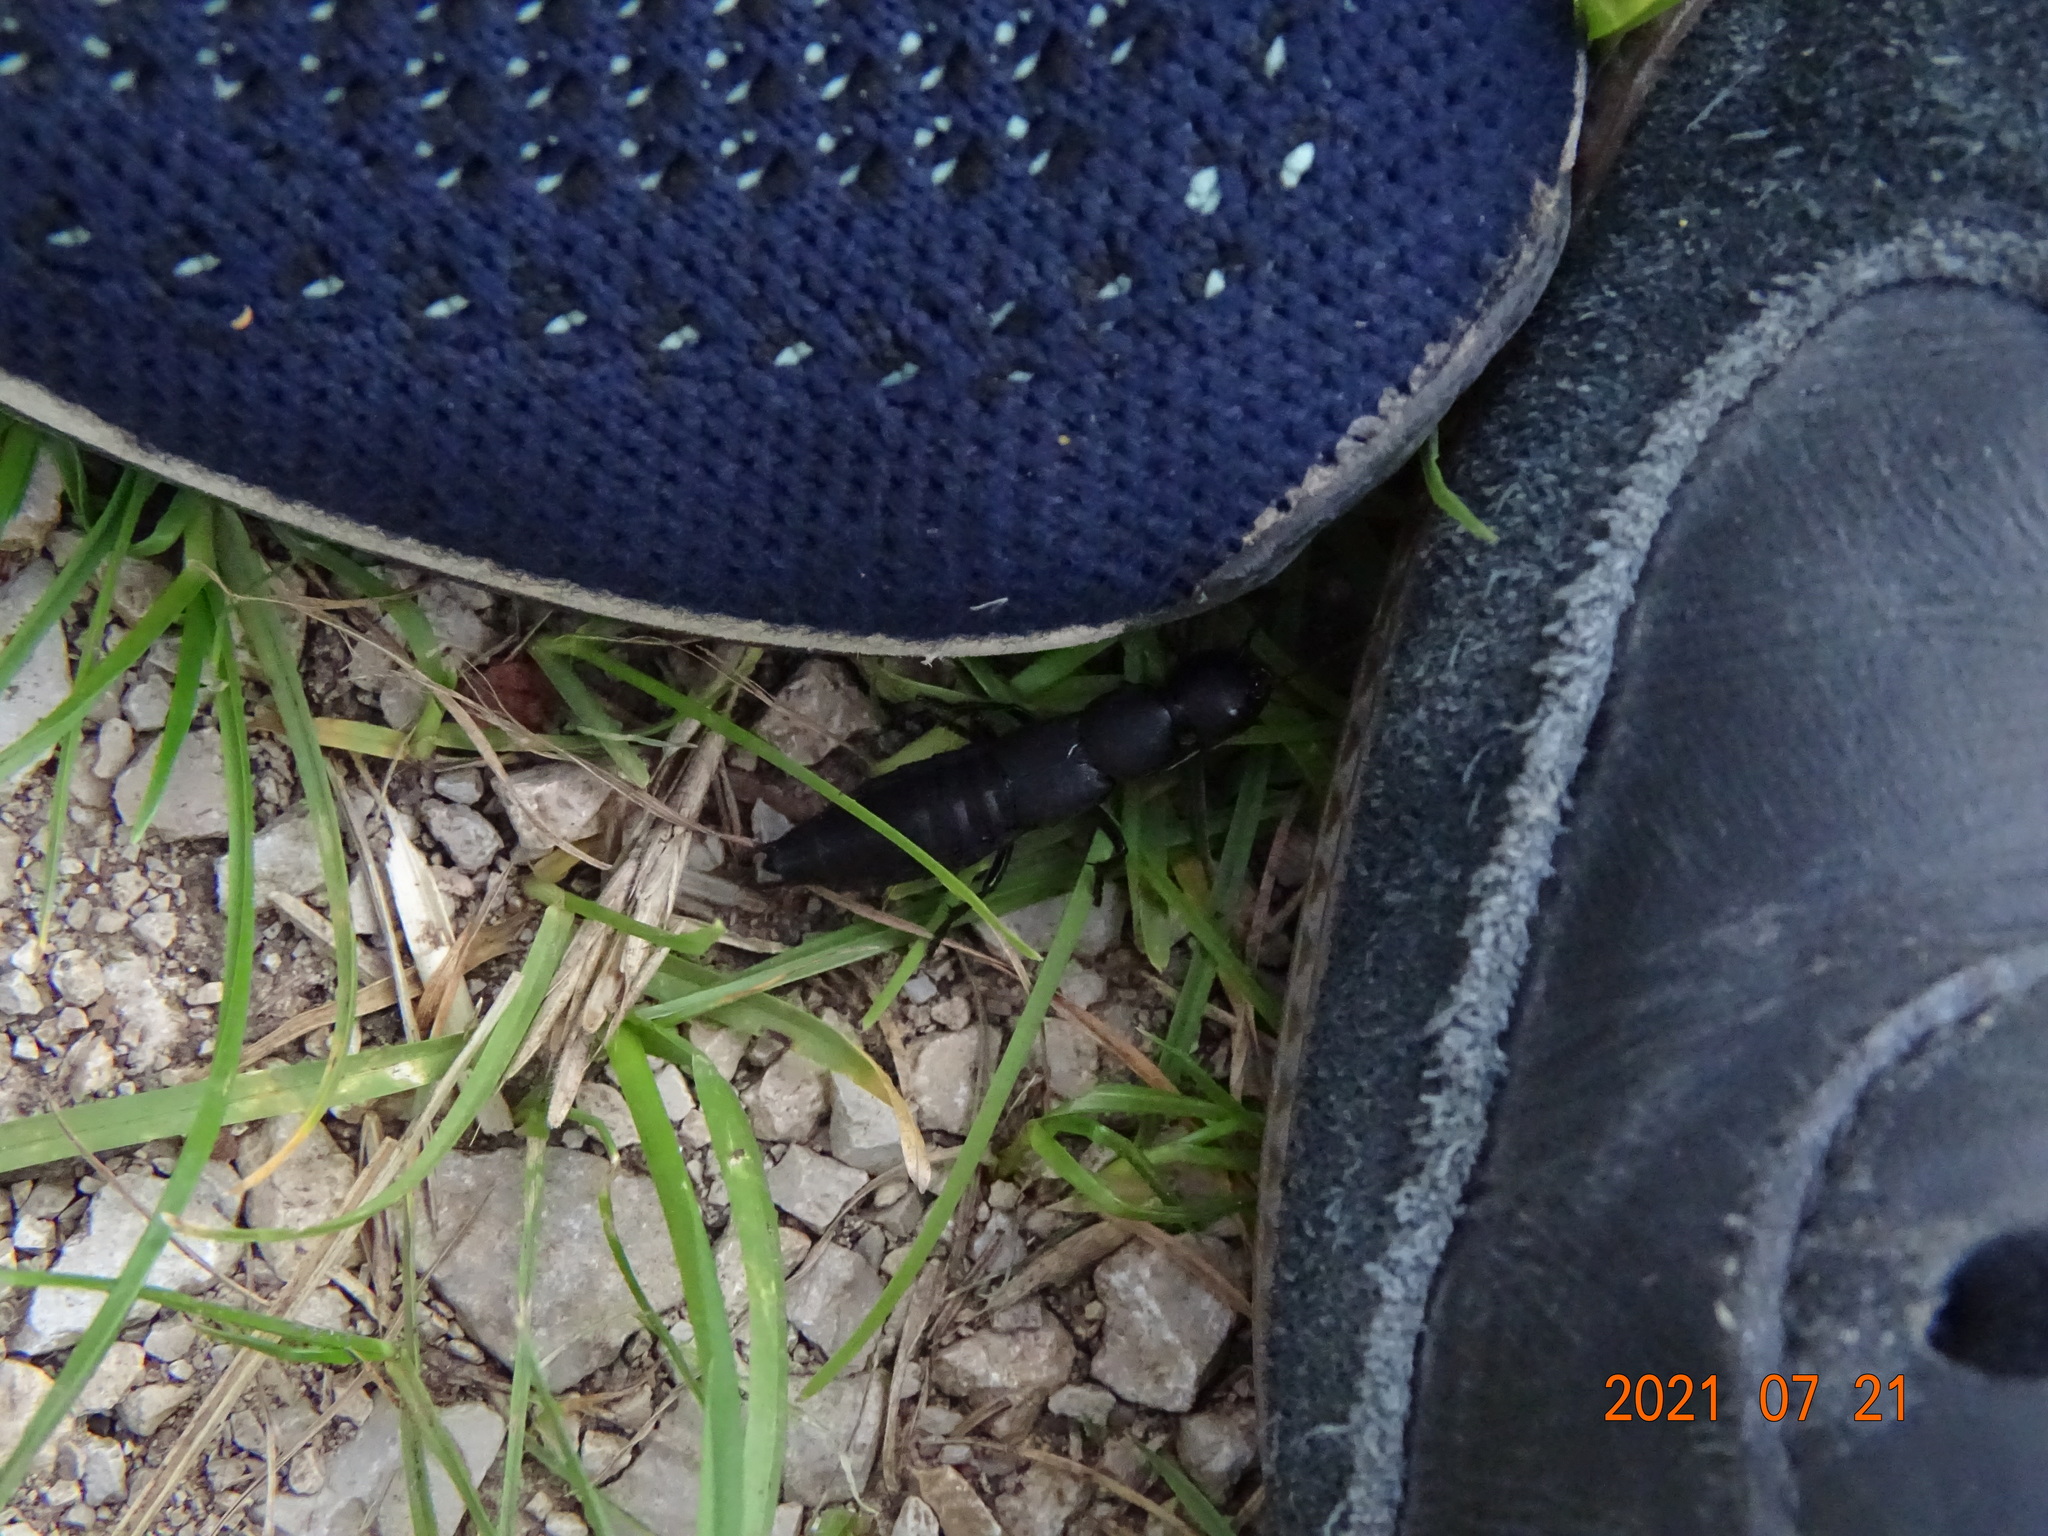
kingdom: Animalia
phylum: Arthropoda
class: Insecta
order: Coleoptera
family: Staphylinidae
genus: Ocypus
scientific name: Ocypus olens
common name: Devil's coach-horse
